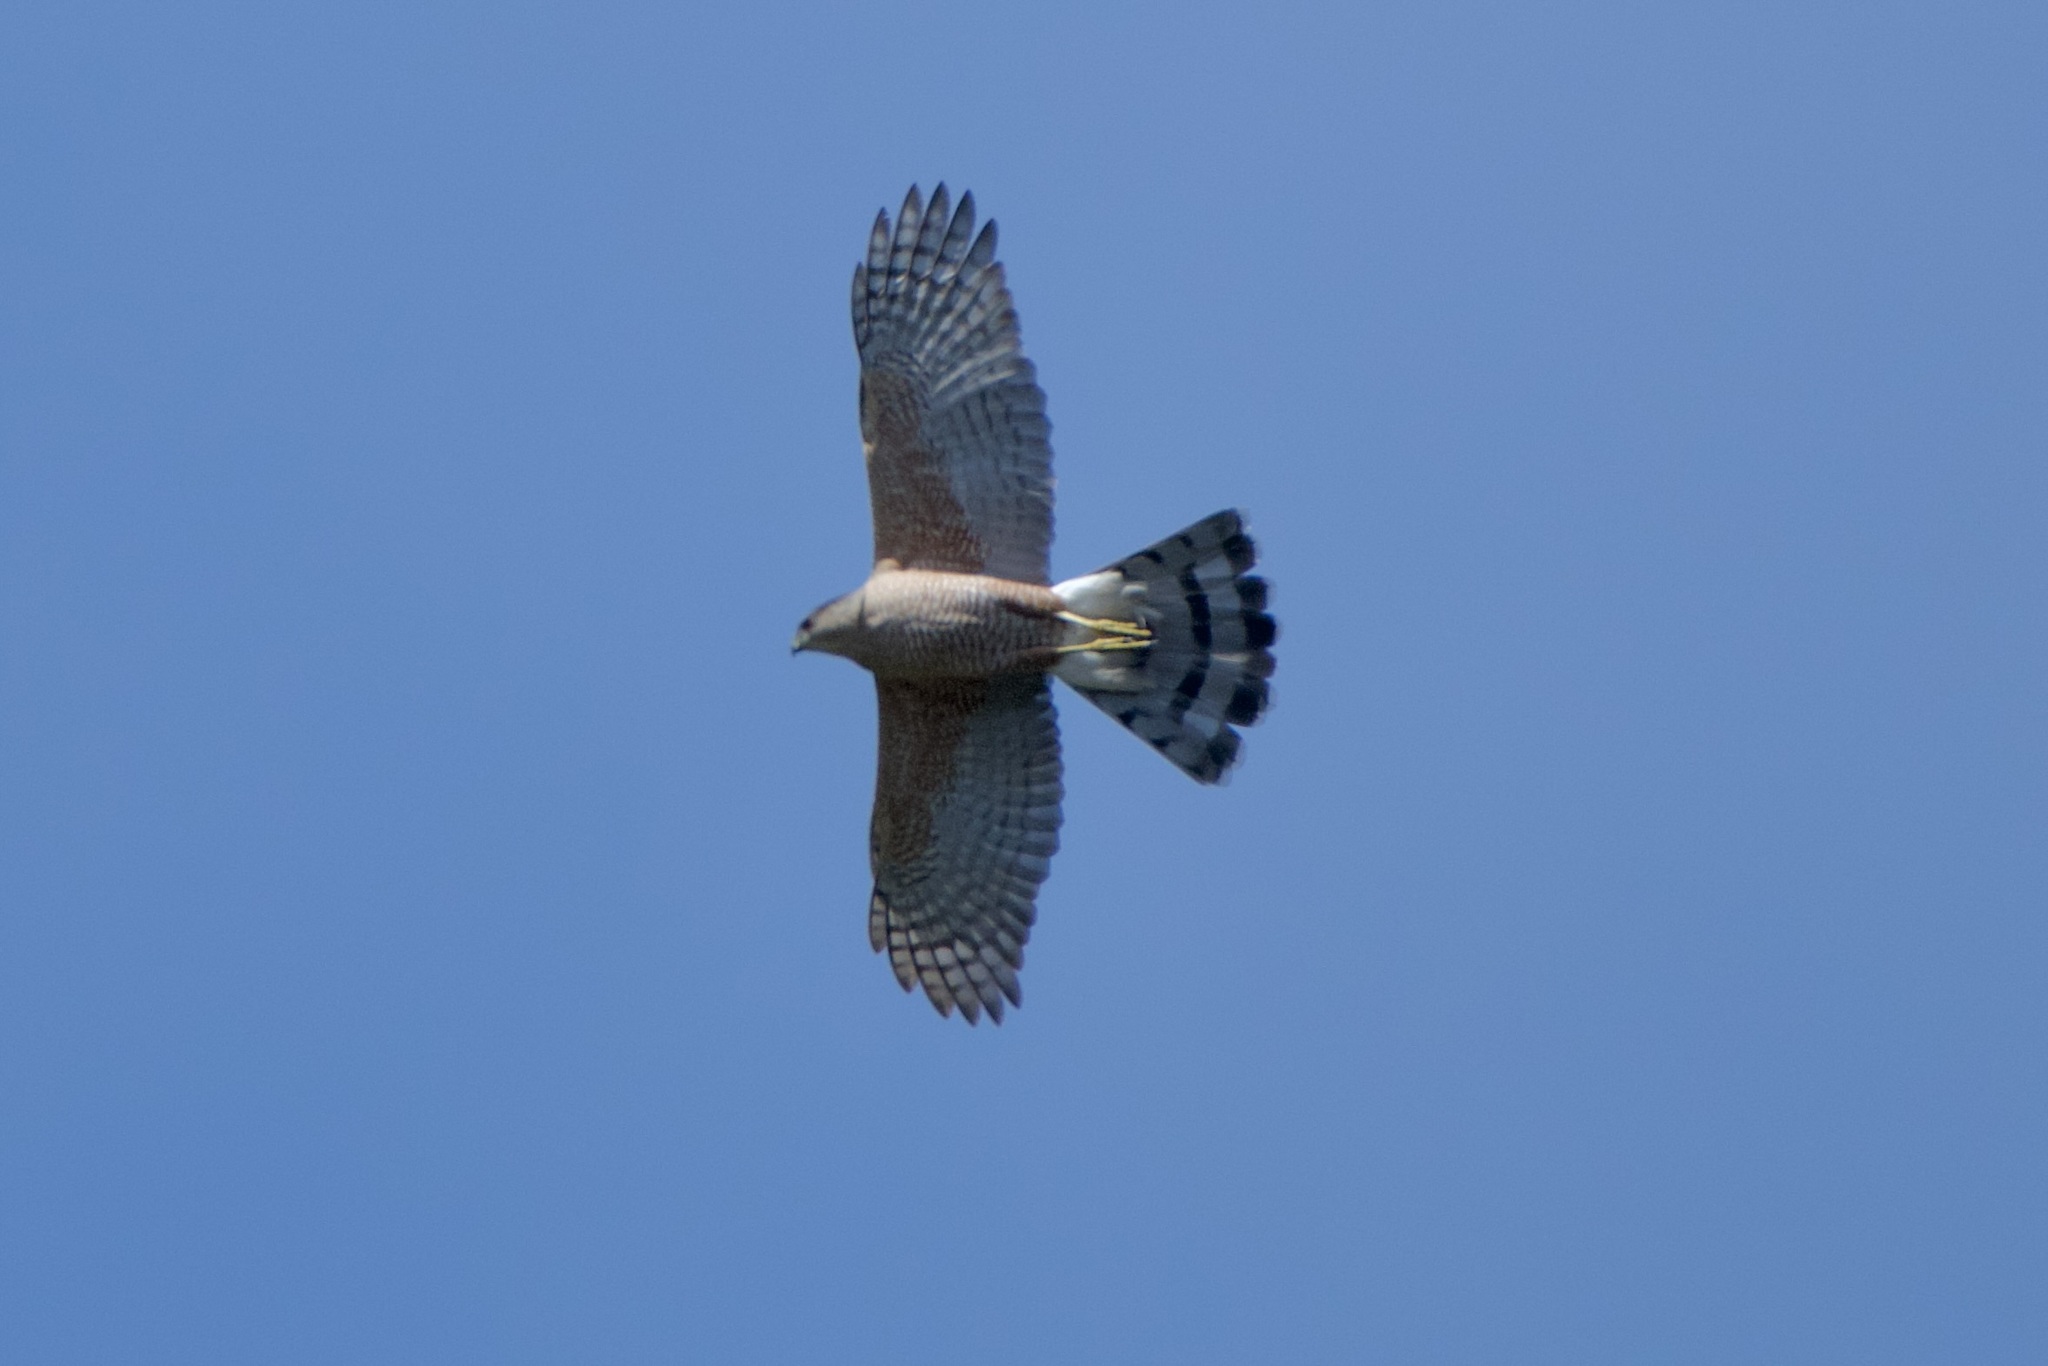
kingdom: Animalia
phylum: Chordata
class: Aves
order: Accipitriformes
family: Accipitridae
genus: Accipiter
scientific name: Accipiter cooperii
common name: Cooper's hawk
